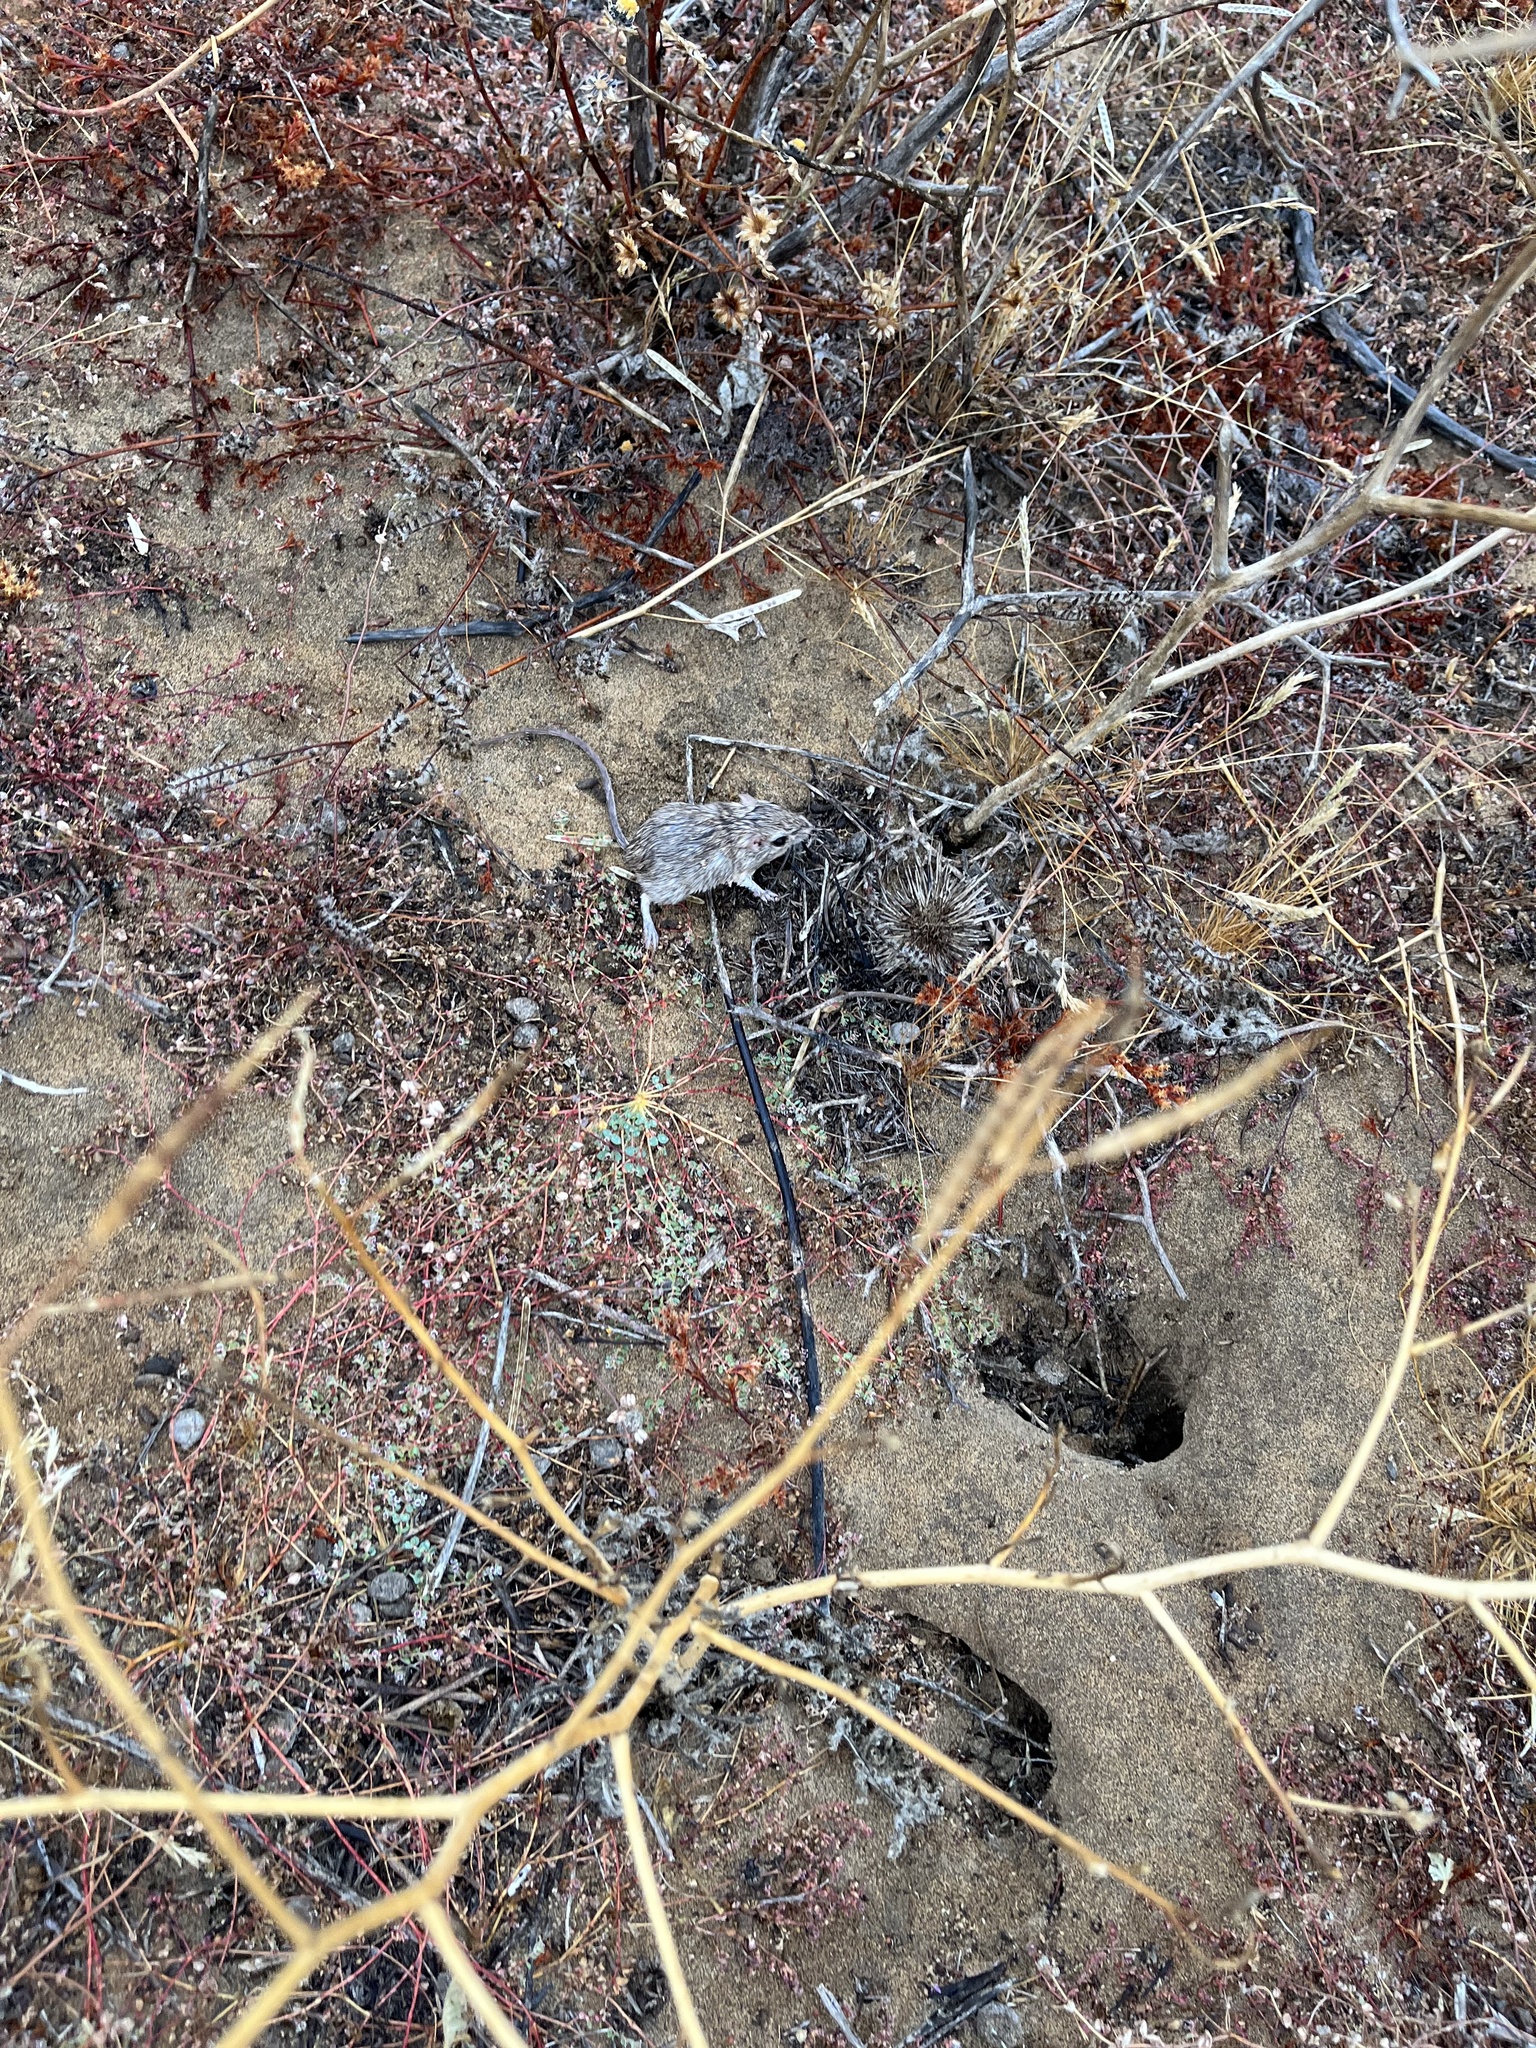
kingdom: Animalia
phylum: Chordata
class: Mammalia
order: Rodentia
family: Heteromyidae
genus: Chaetodipus
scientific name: Chaetodipus arenarius
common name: Little desert pocket mouse
